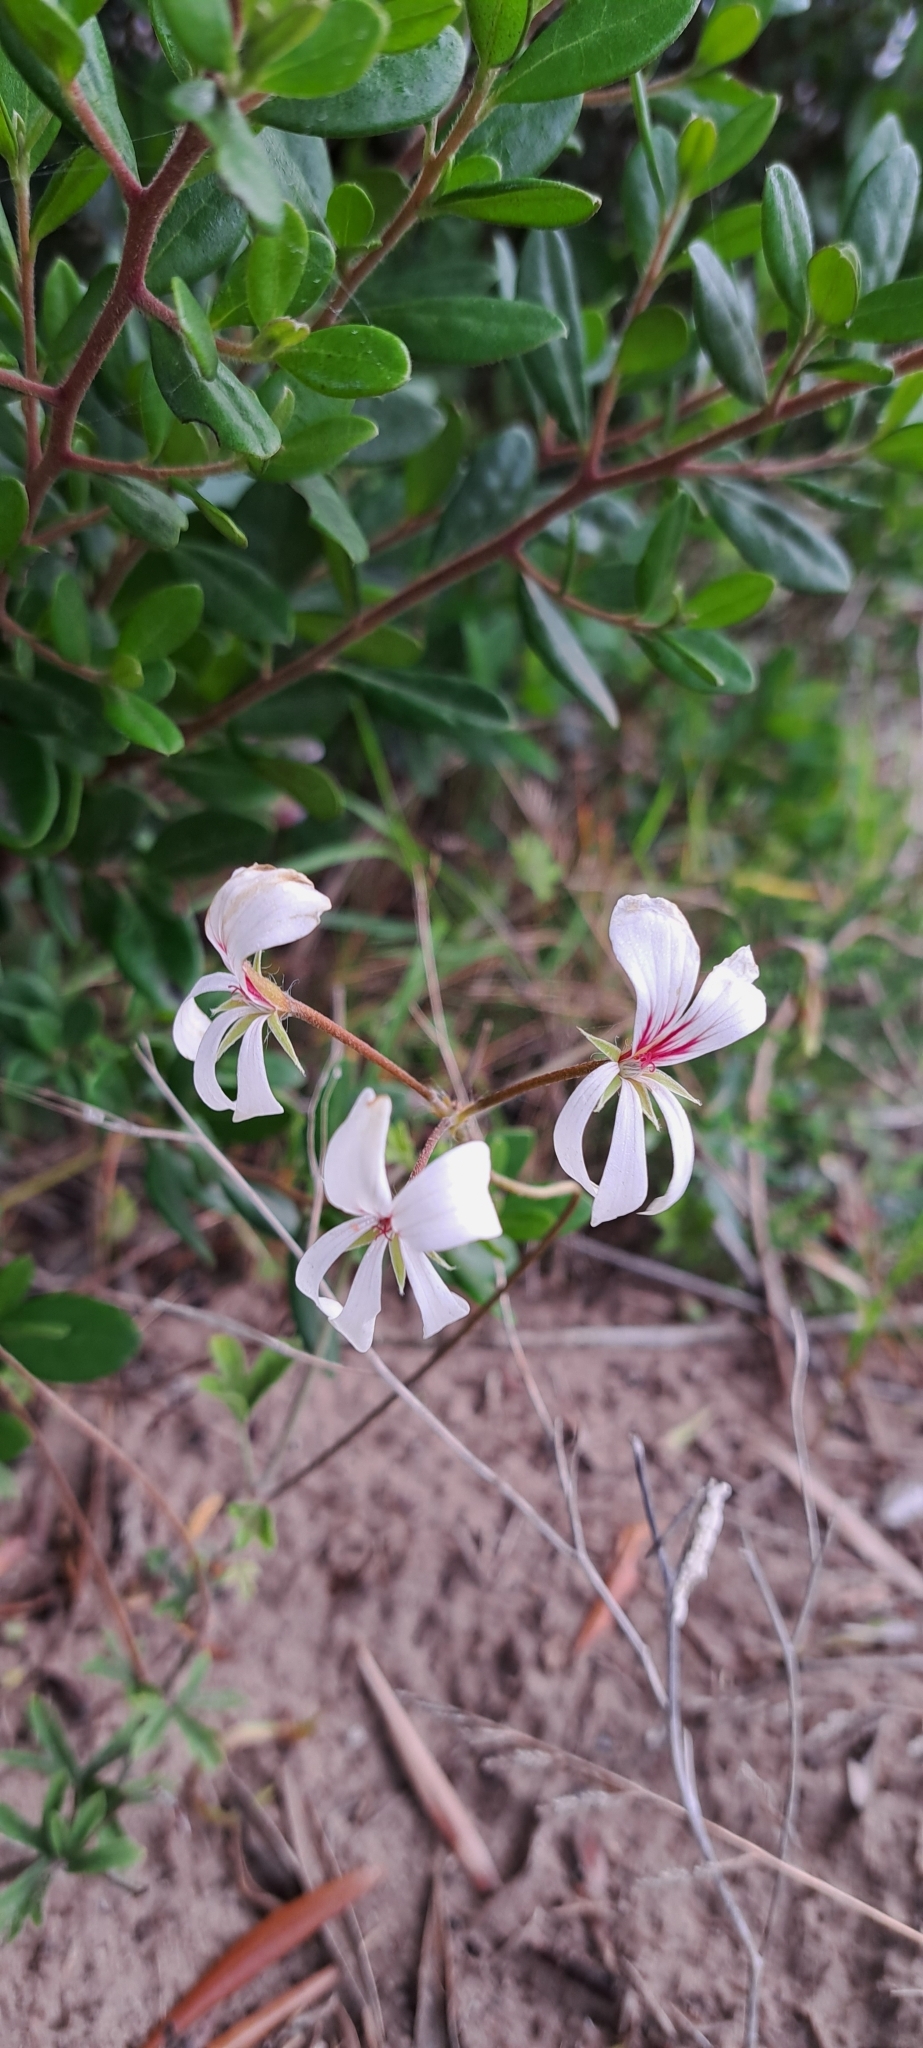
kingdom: Plantae
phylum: Tracheophyta
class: Magnoliopsida
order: Geraniales
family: Geraniaceae
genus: Pelargonium
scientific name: Pelargonium peltatum
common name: Ivyleaf geranium
